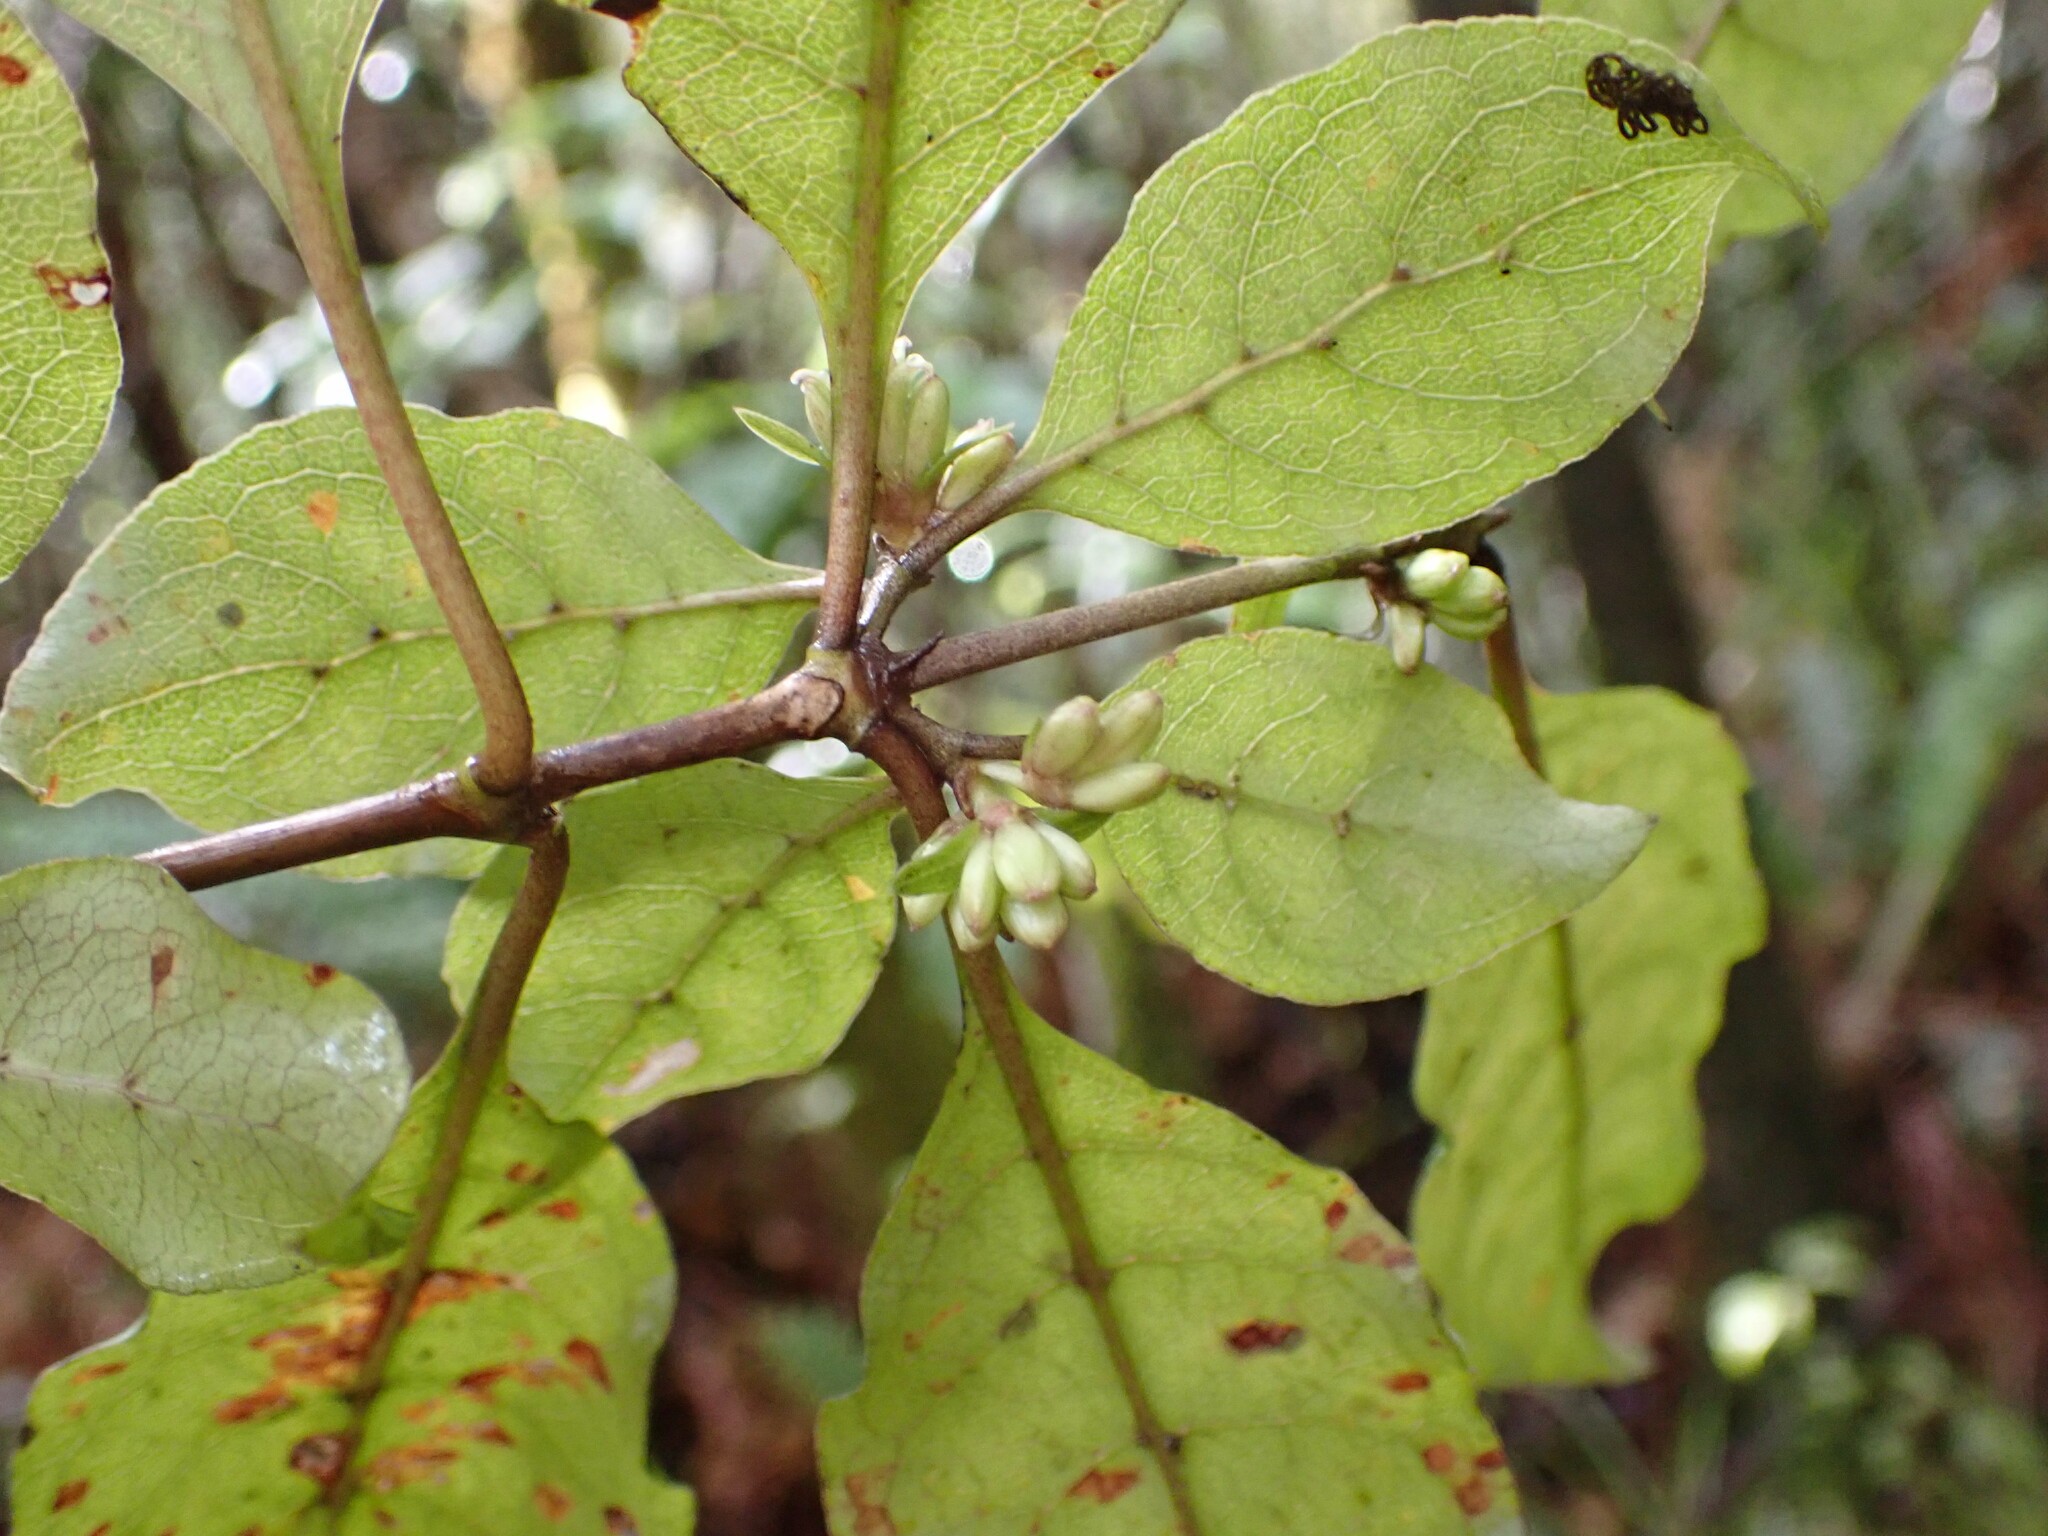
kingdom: Plantae
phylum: Tracheophyta
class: Magnoliopsida
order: Gentianales
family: Rubiaceae
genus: Coprosma
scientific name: Coprosma tenuifolia
